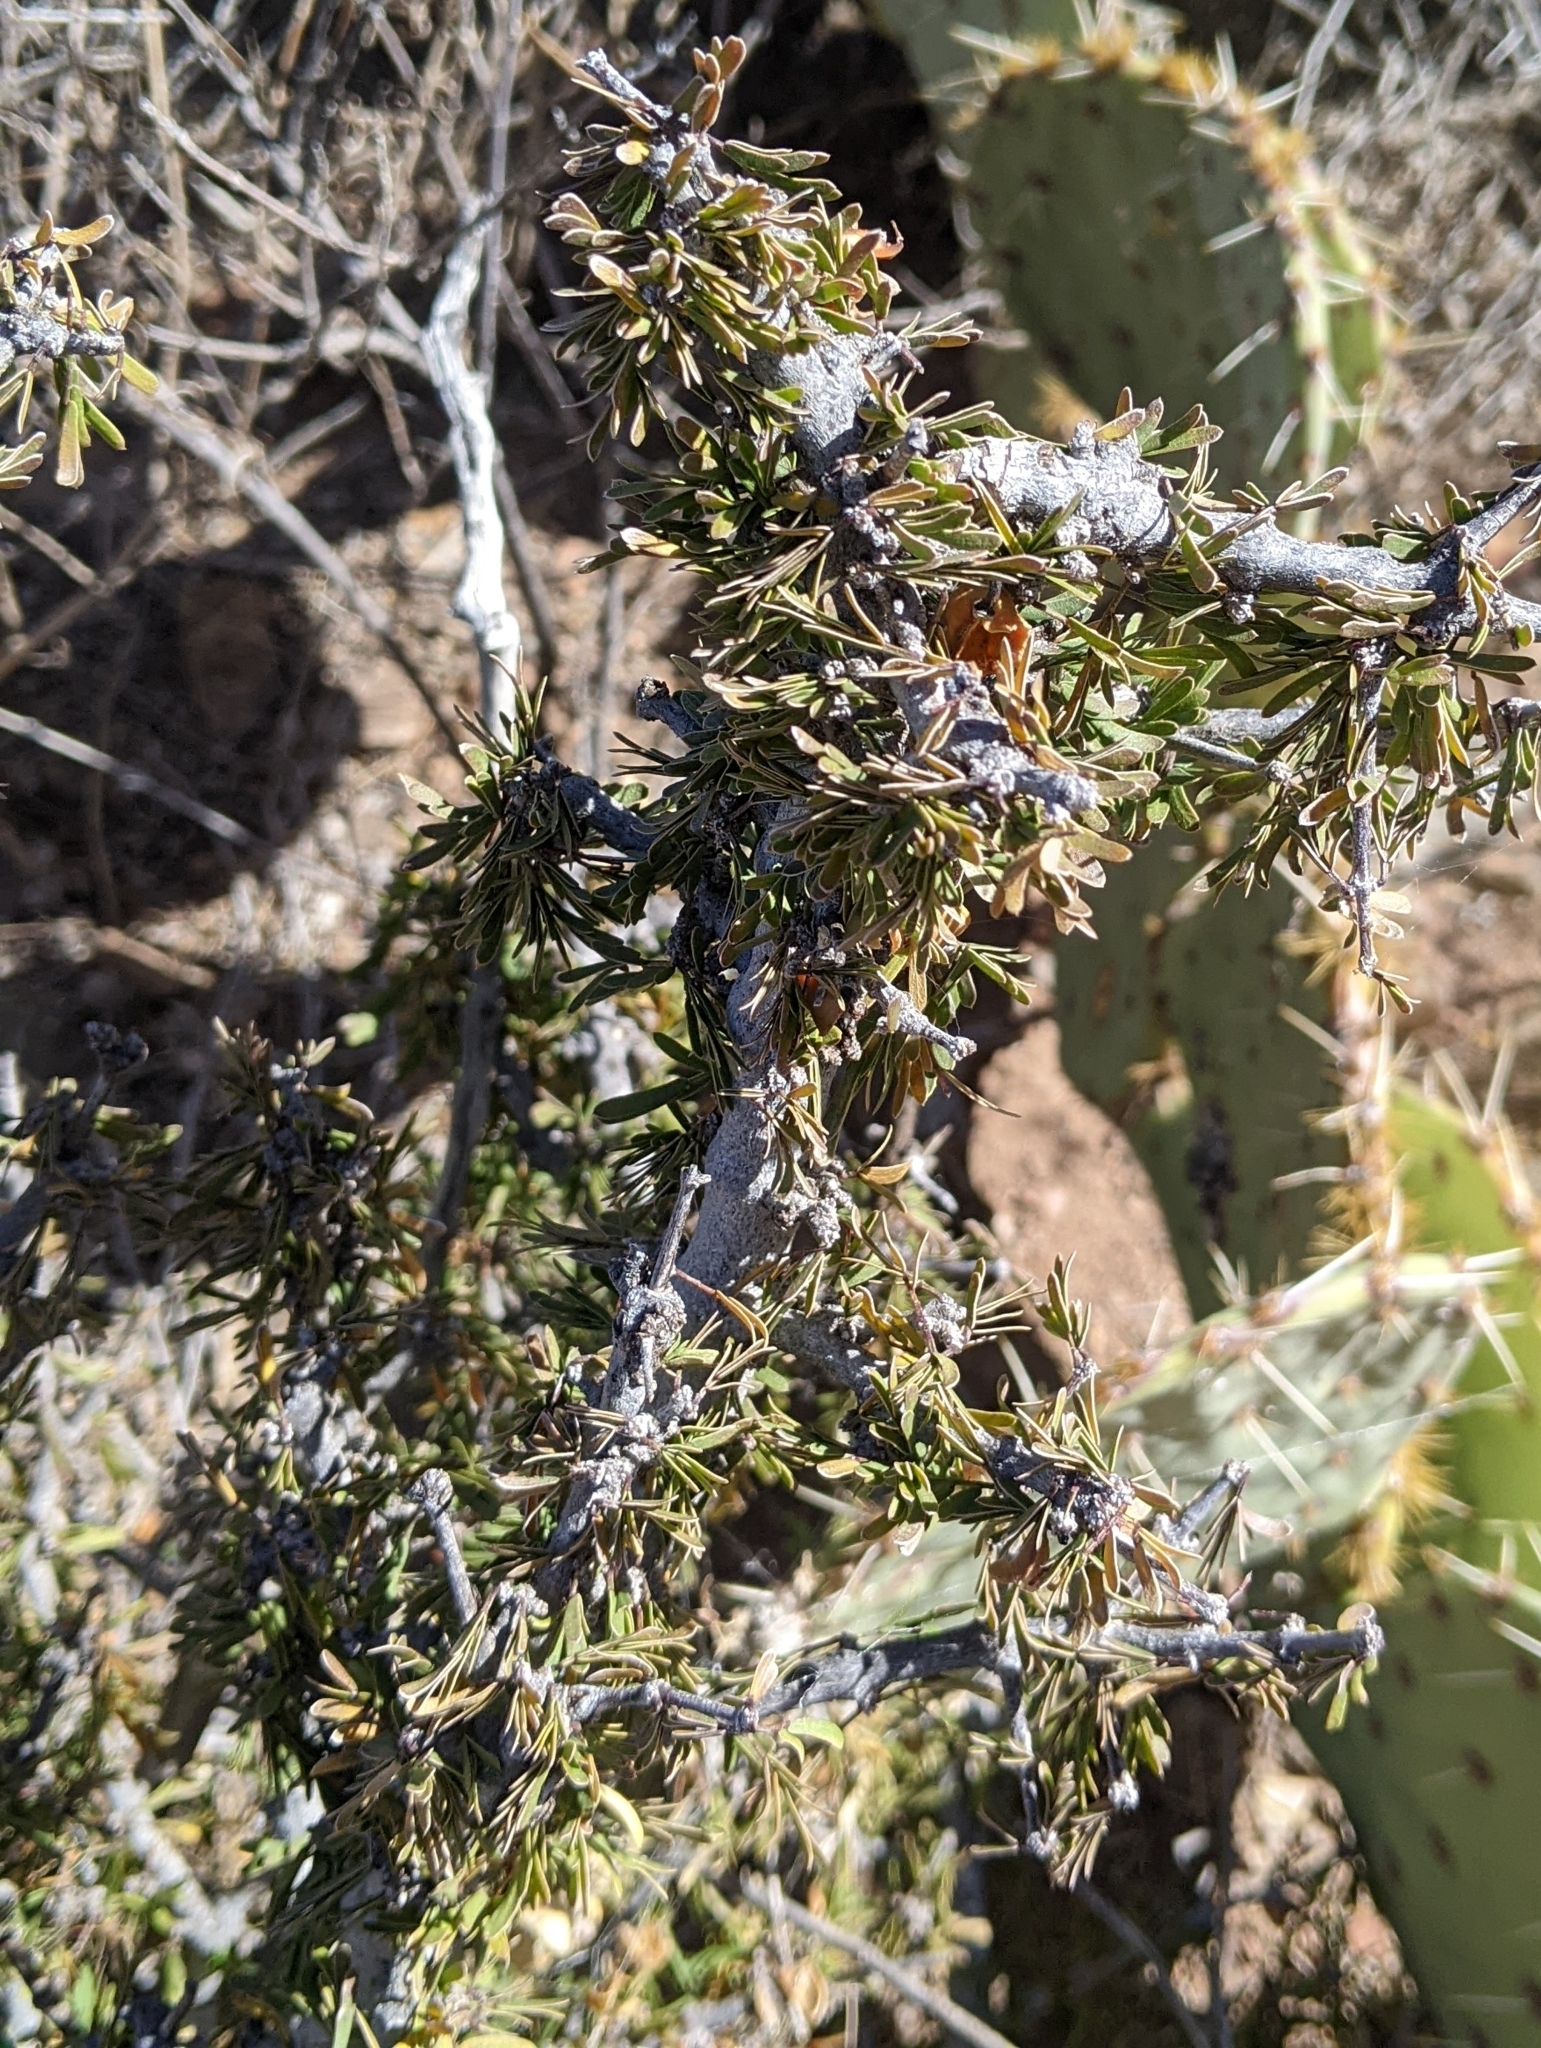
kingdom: Plantae
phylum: Tracheophyta
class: Magnoliopsida
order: Zygophyllales
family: Zygophyllaceae
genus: Porlieria
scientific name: Porlieria angustifolia
